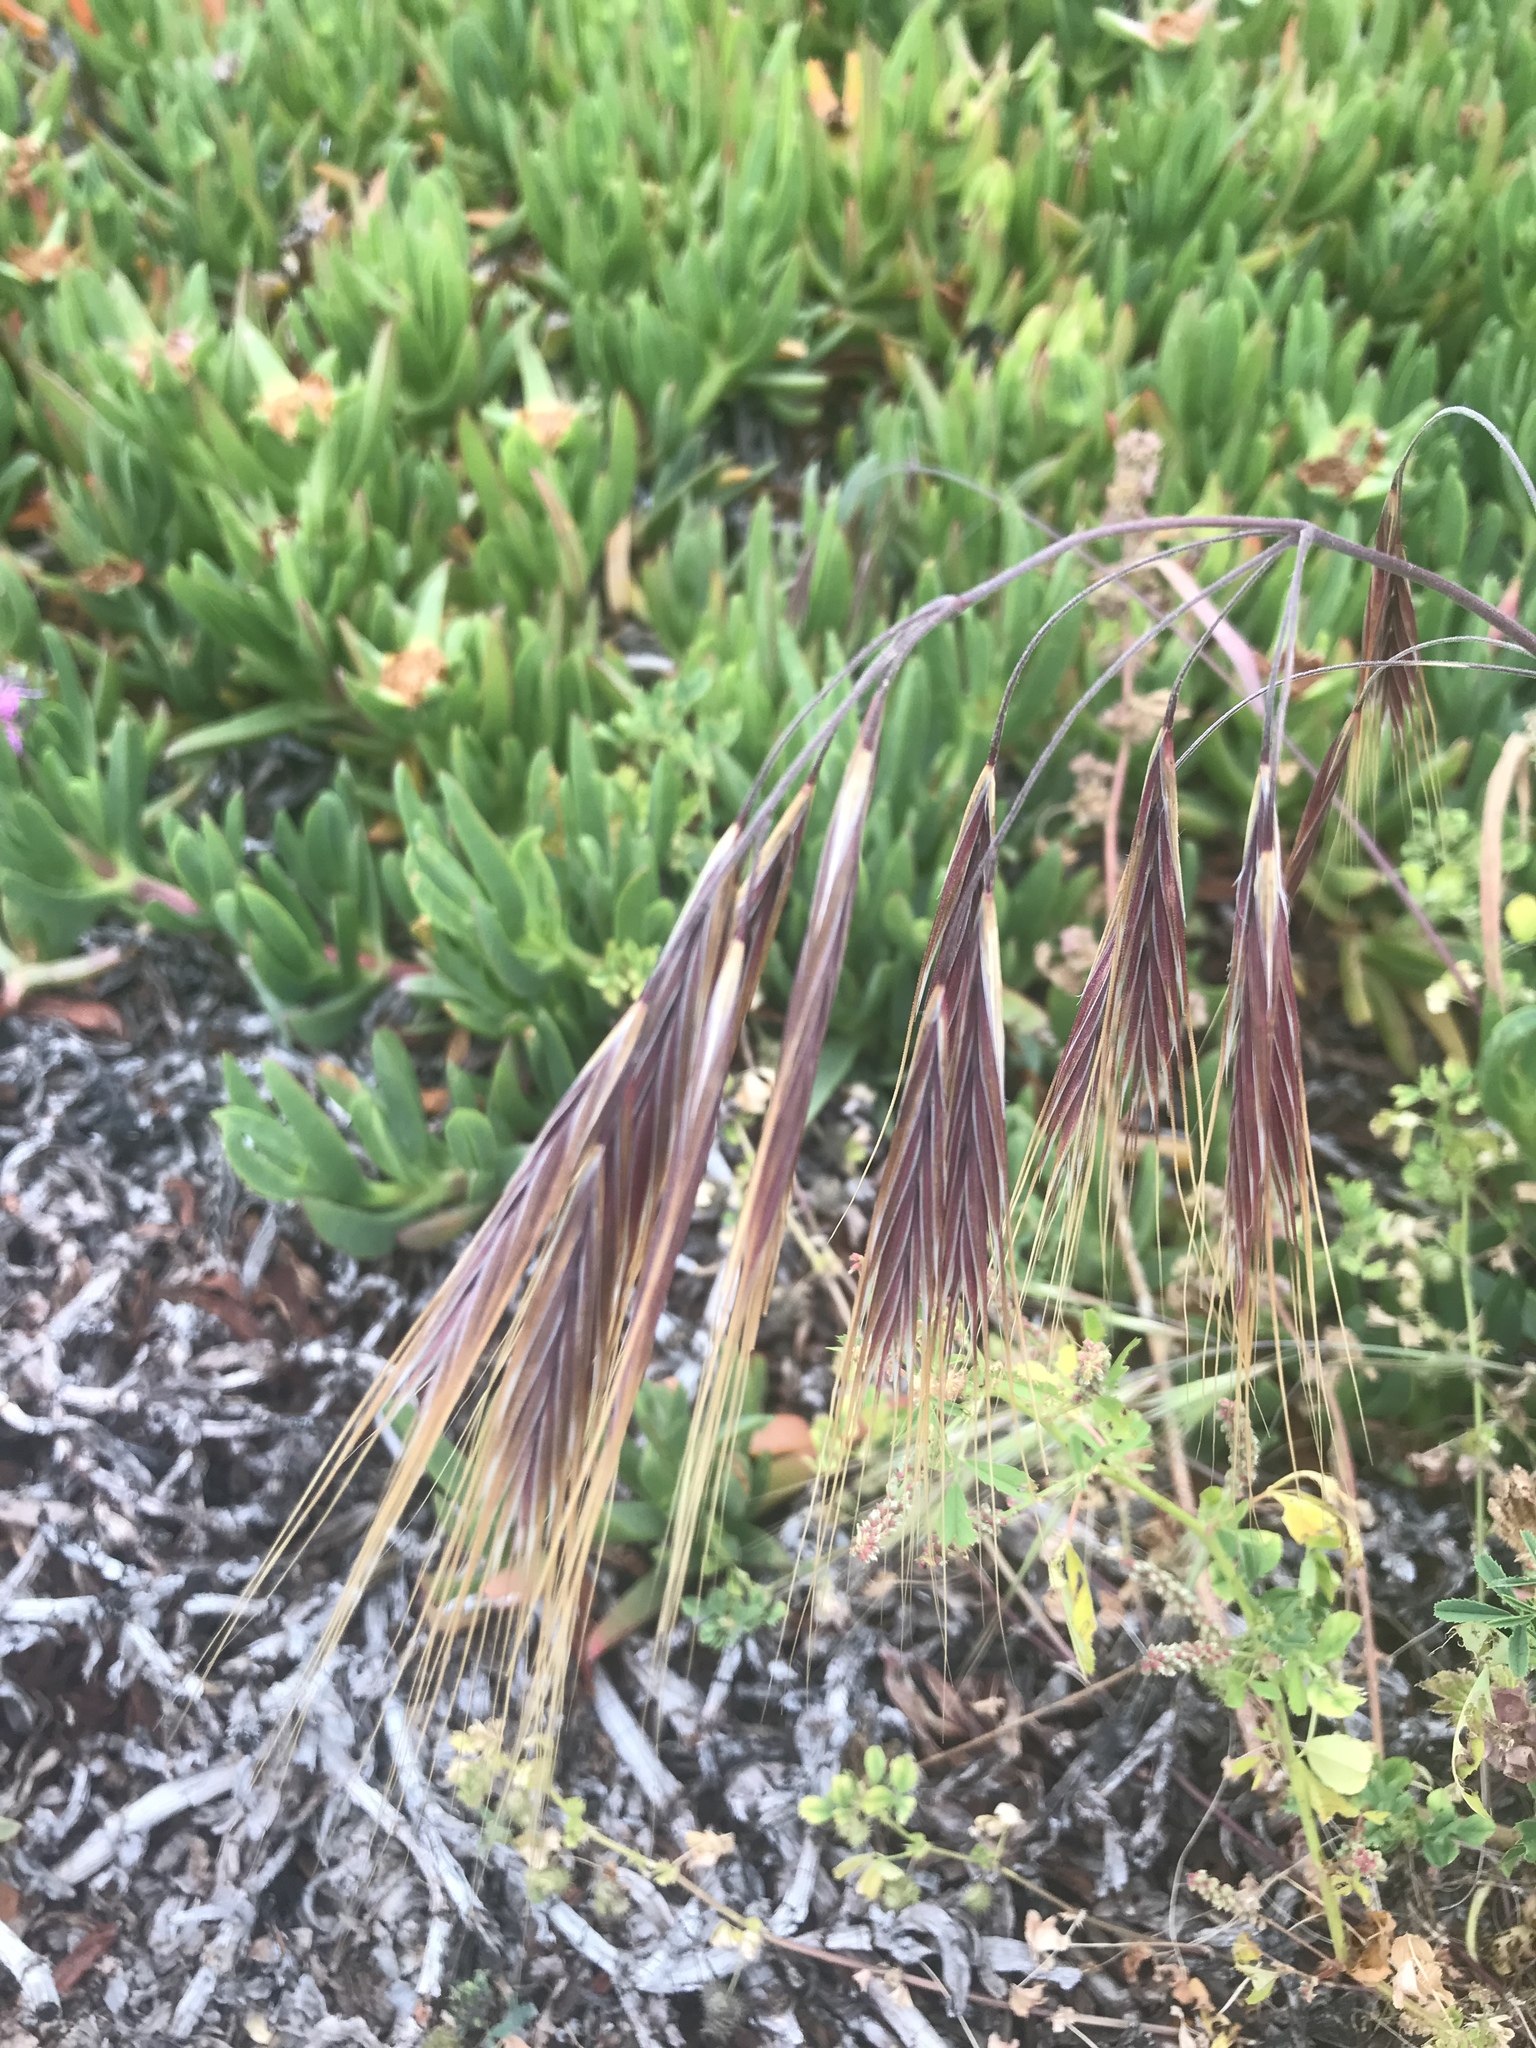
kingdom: Plantae
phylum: Tracheophyta
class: Liliopsida
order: Poales
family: Poaceae
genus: Bromus
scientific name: Bromus diandrus
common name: Ripgut brome
